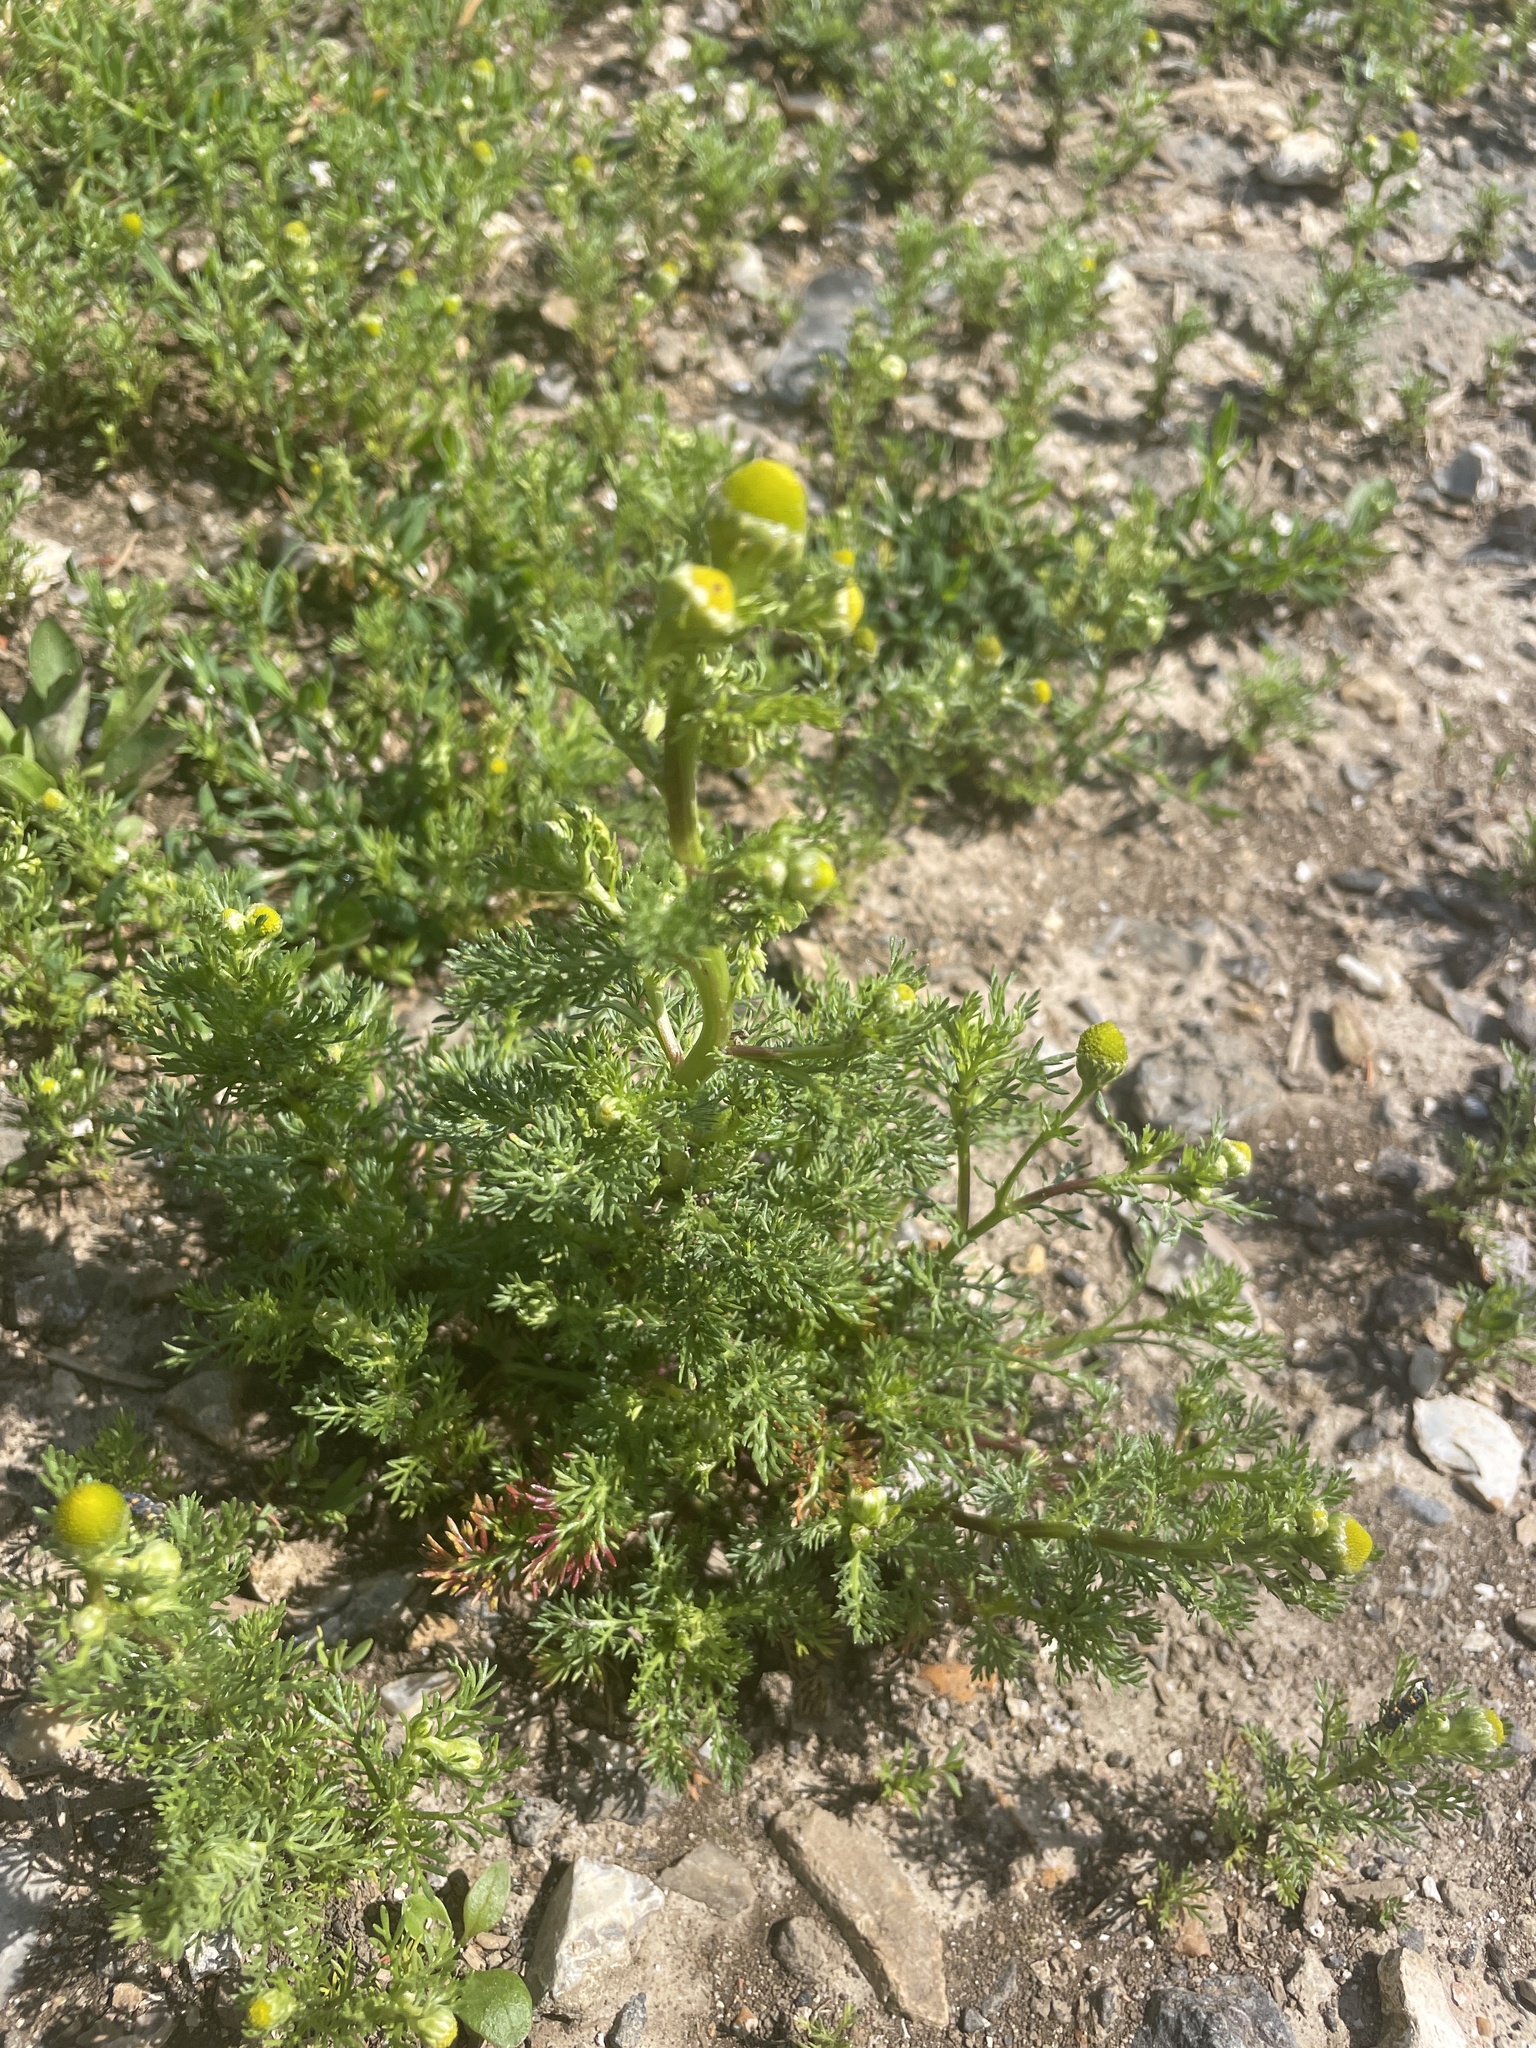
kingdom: Plantae
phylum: Tracheophyta
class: Magnoliopsida
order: Asterales
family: Asteraceae
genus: Matricaria
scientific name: Matricaria discoidea
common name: Disc mayweed
